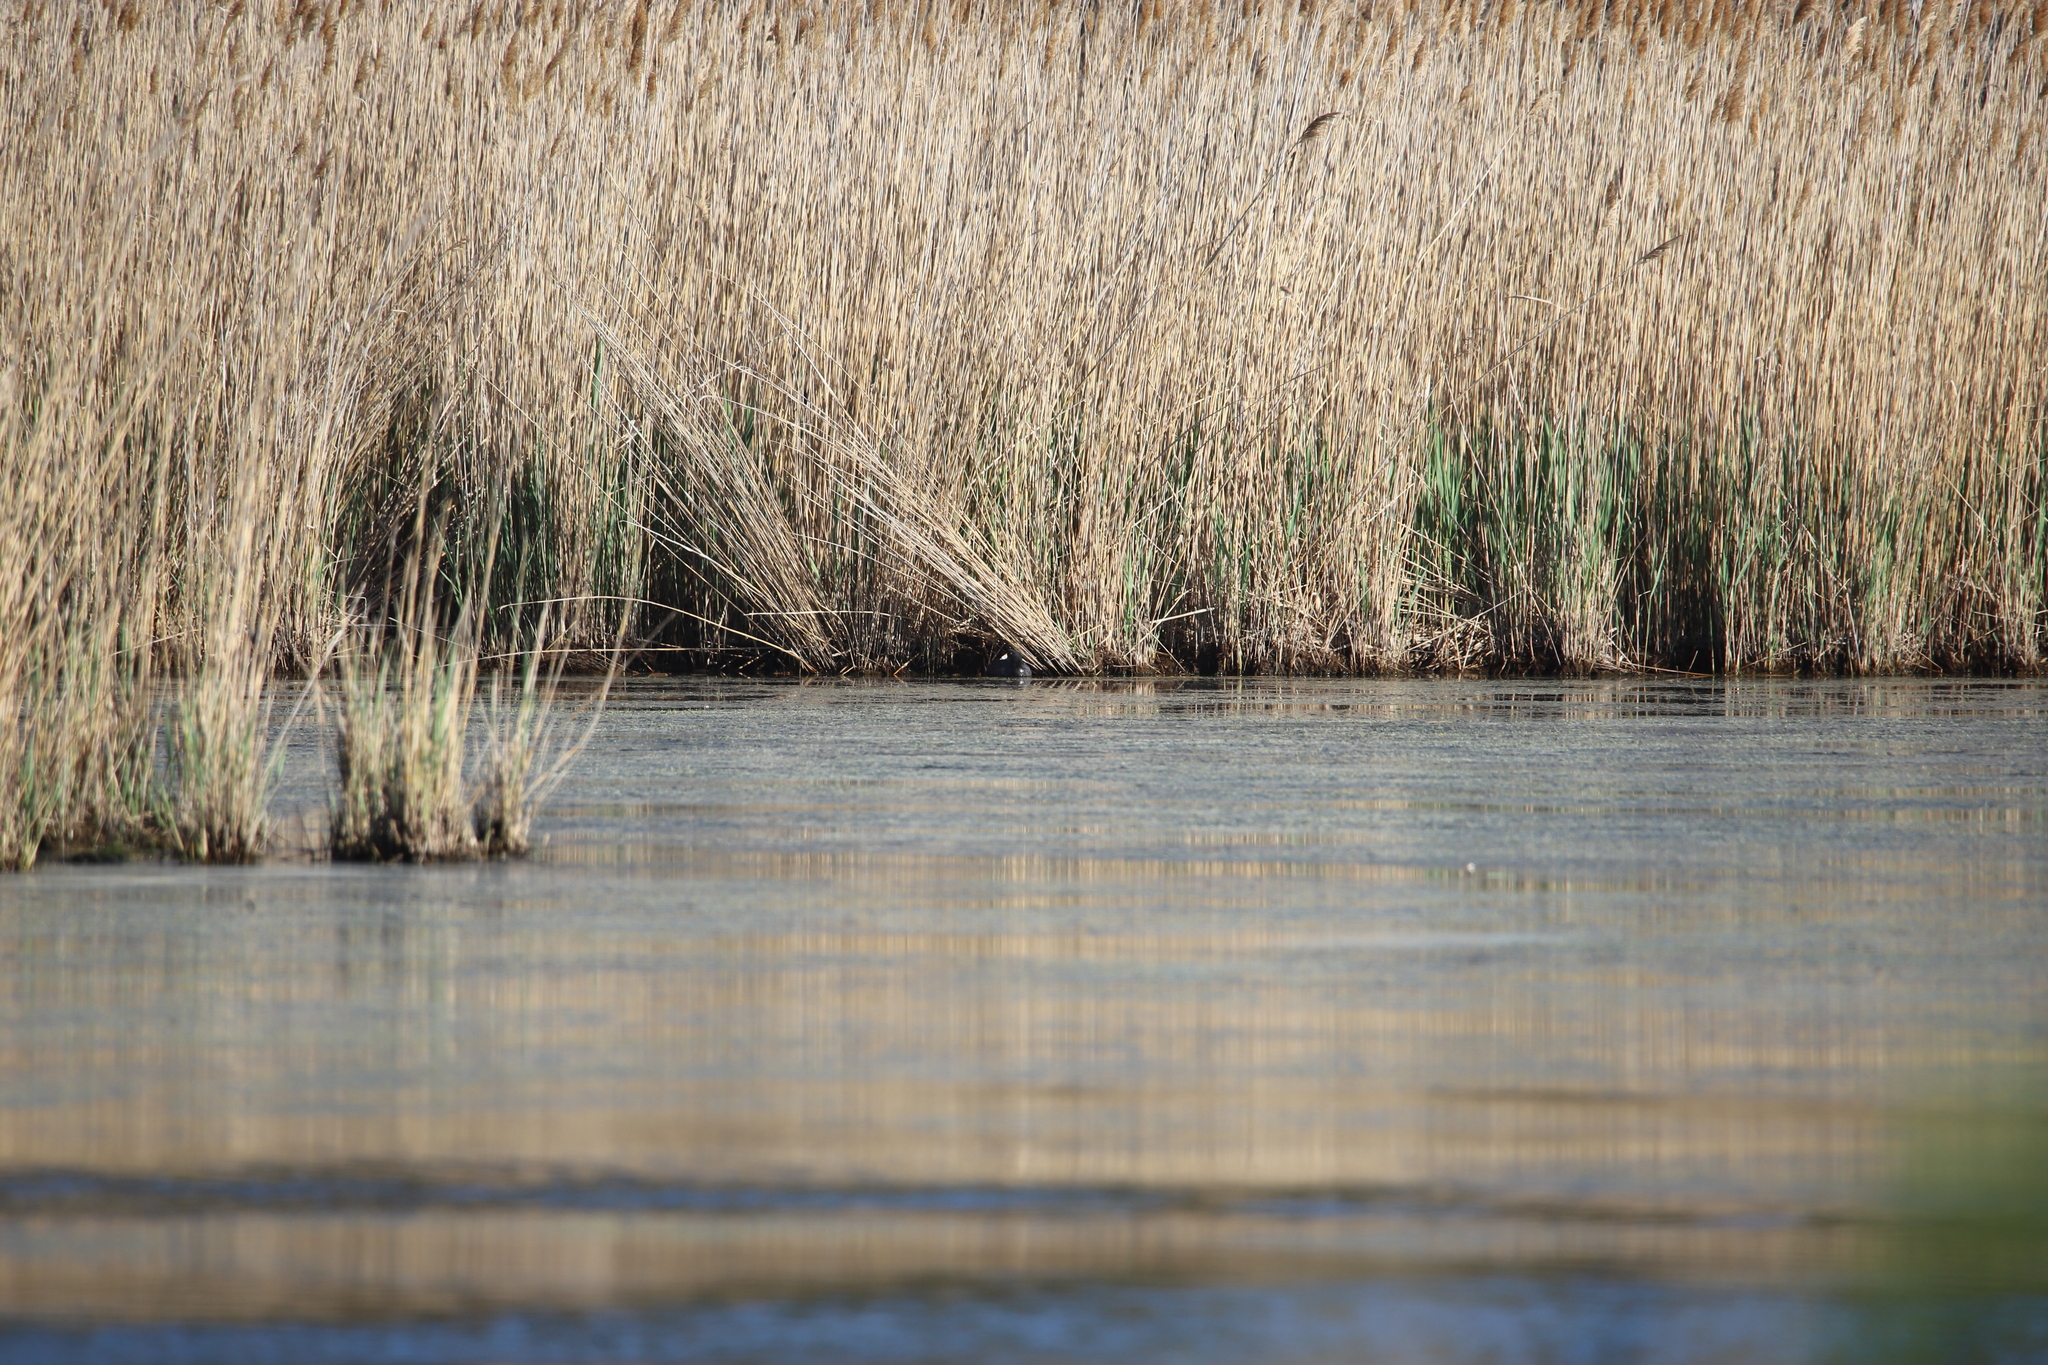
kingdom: Animalia
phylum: Chordata
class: Aves
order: Gruiformes
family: Rallidae
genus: Fulica
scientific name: Fulica americana
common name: American coot
